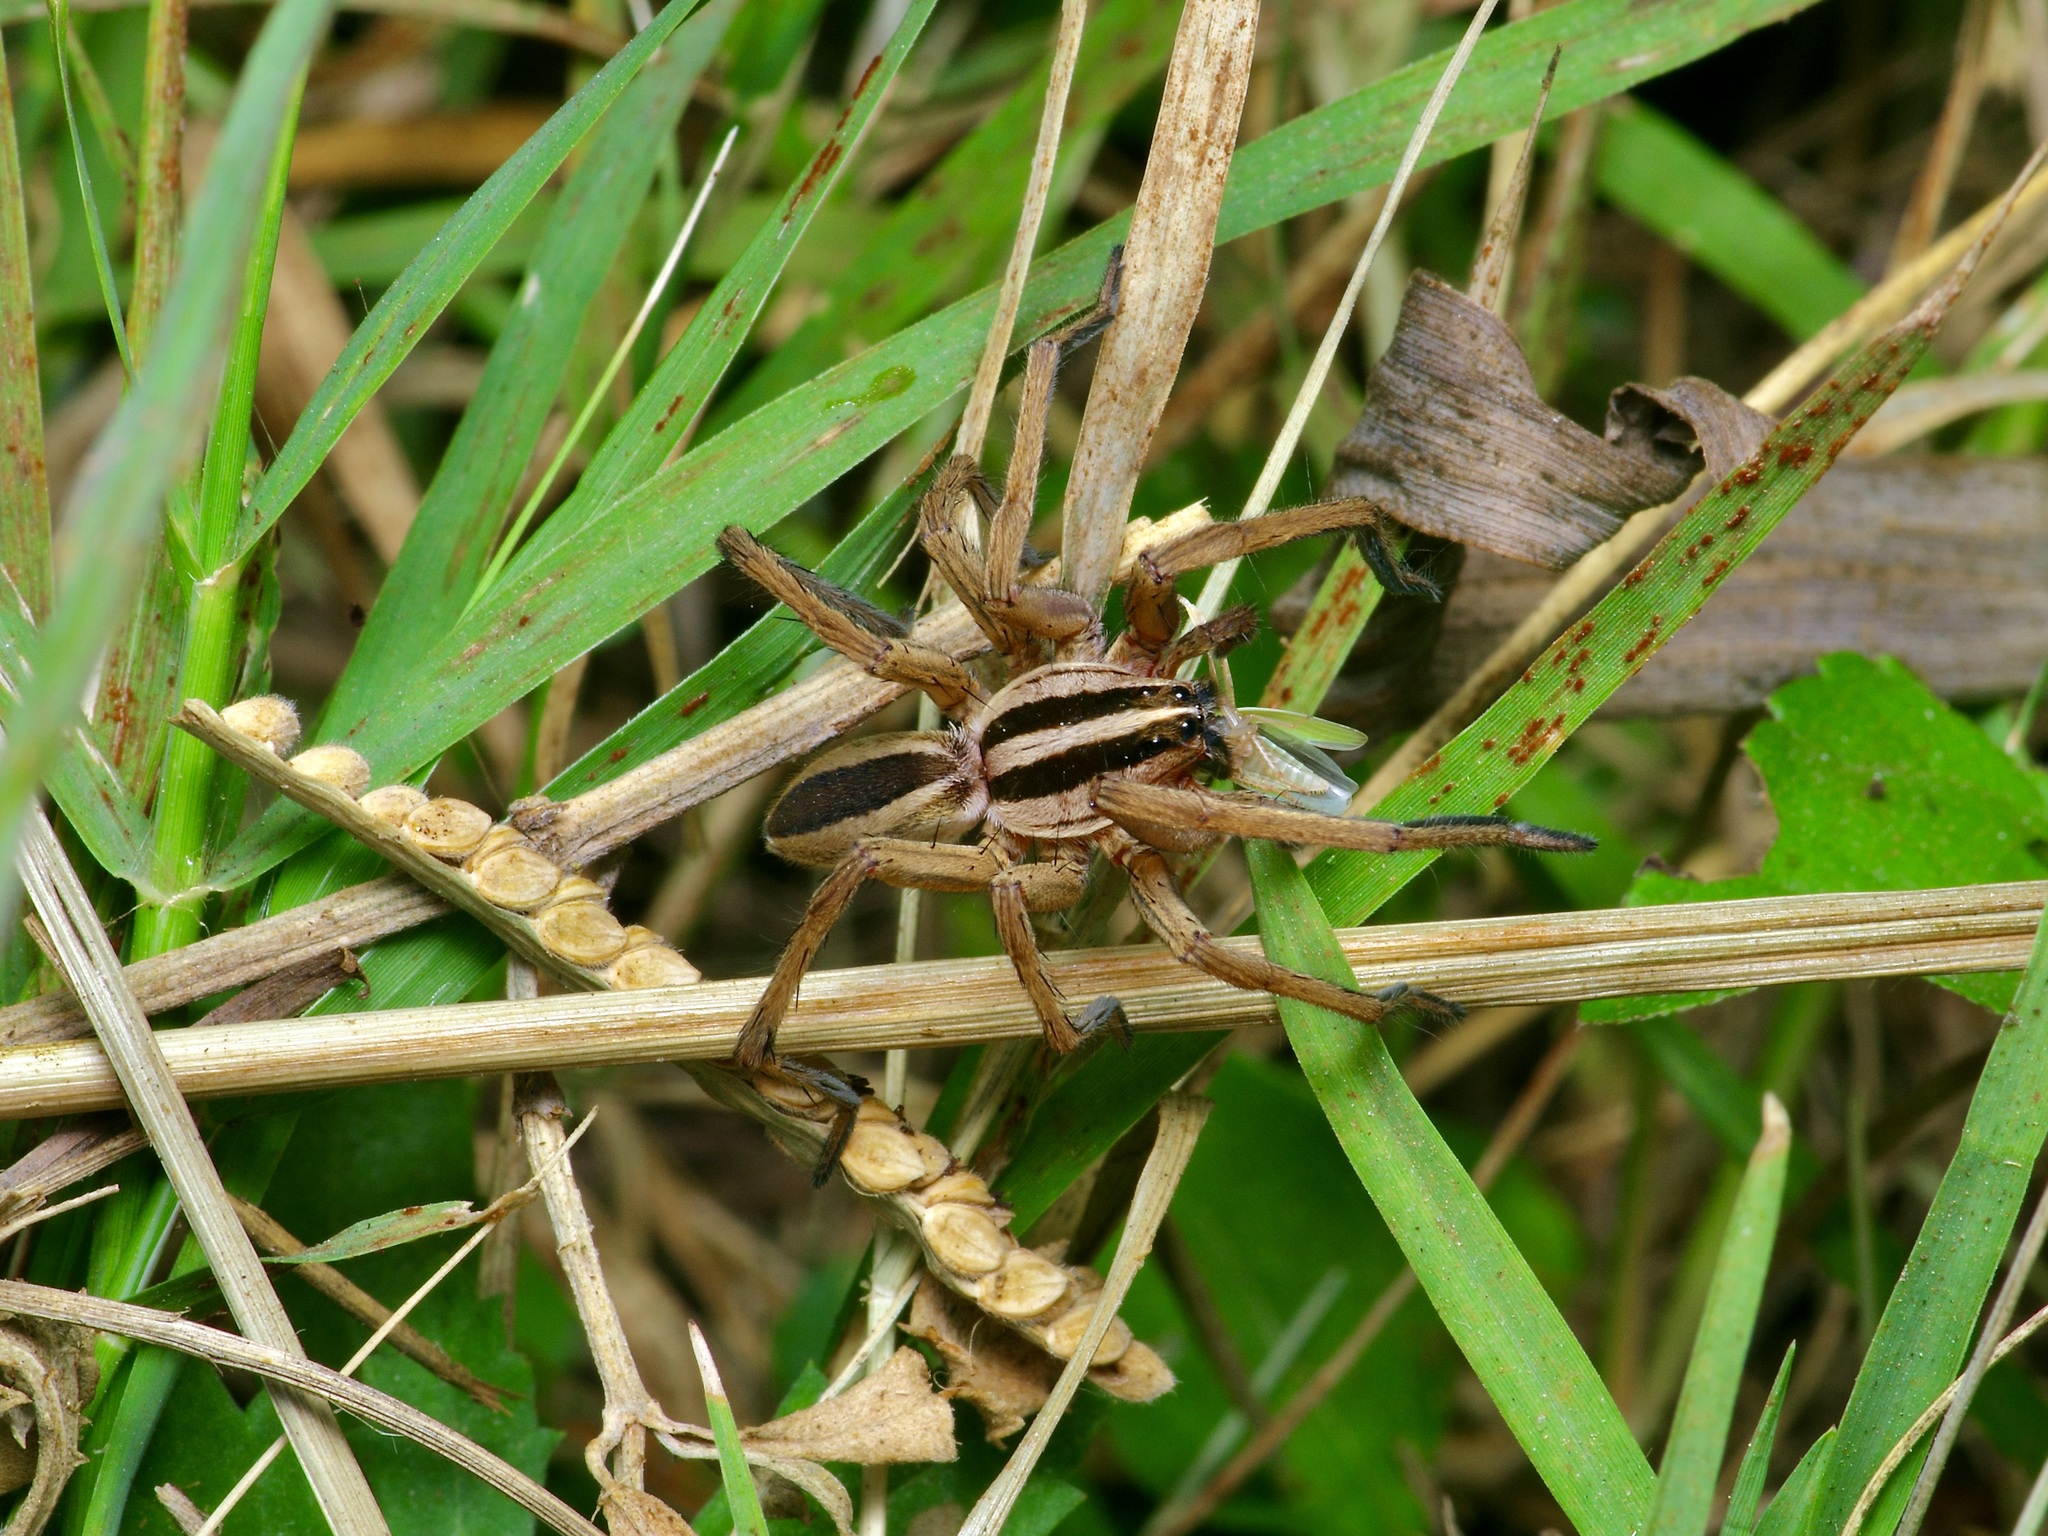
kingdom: Animalia
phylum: Arthropoda
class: Arachnida
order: Araneae
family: Lycosidae
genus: Rabidosa
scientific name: Rabidosa punctulata
